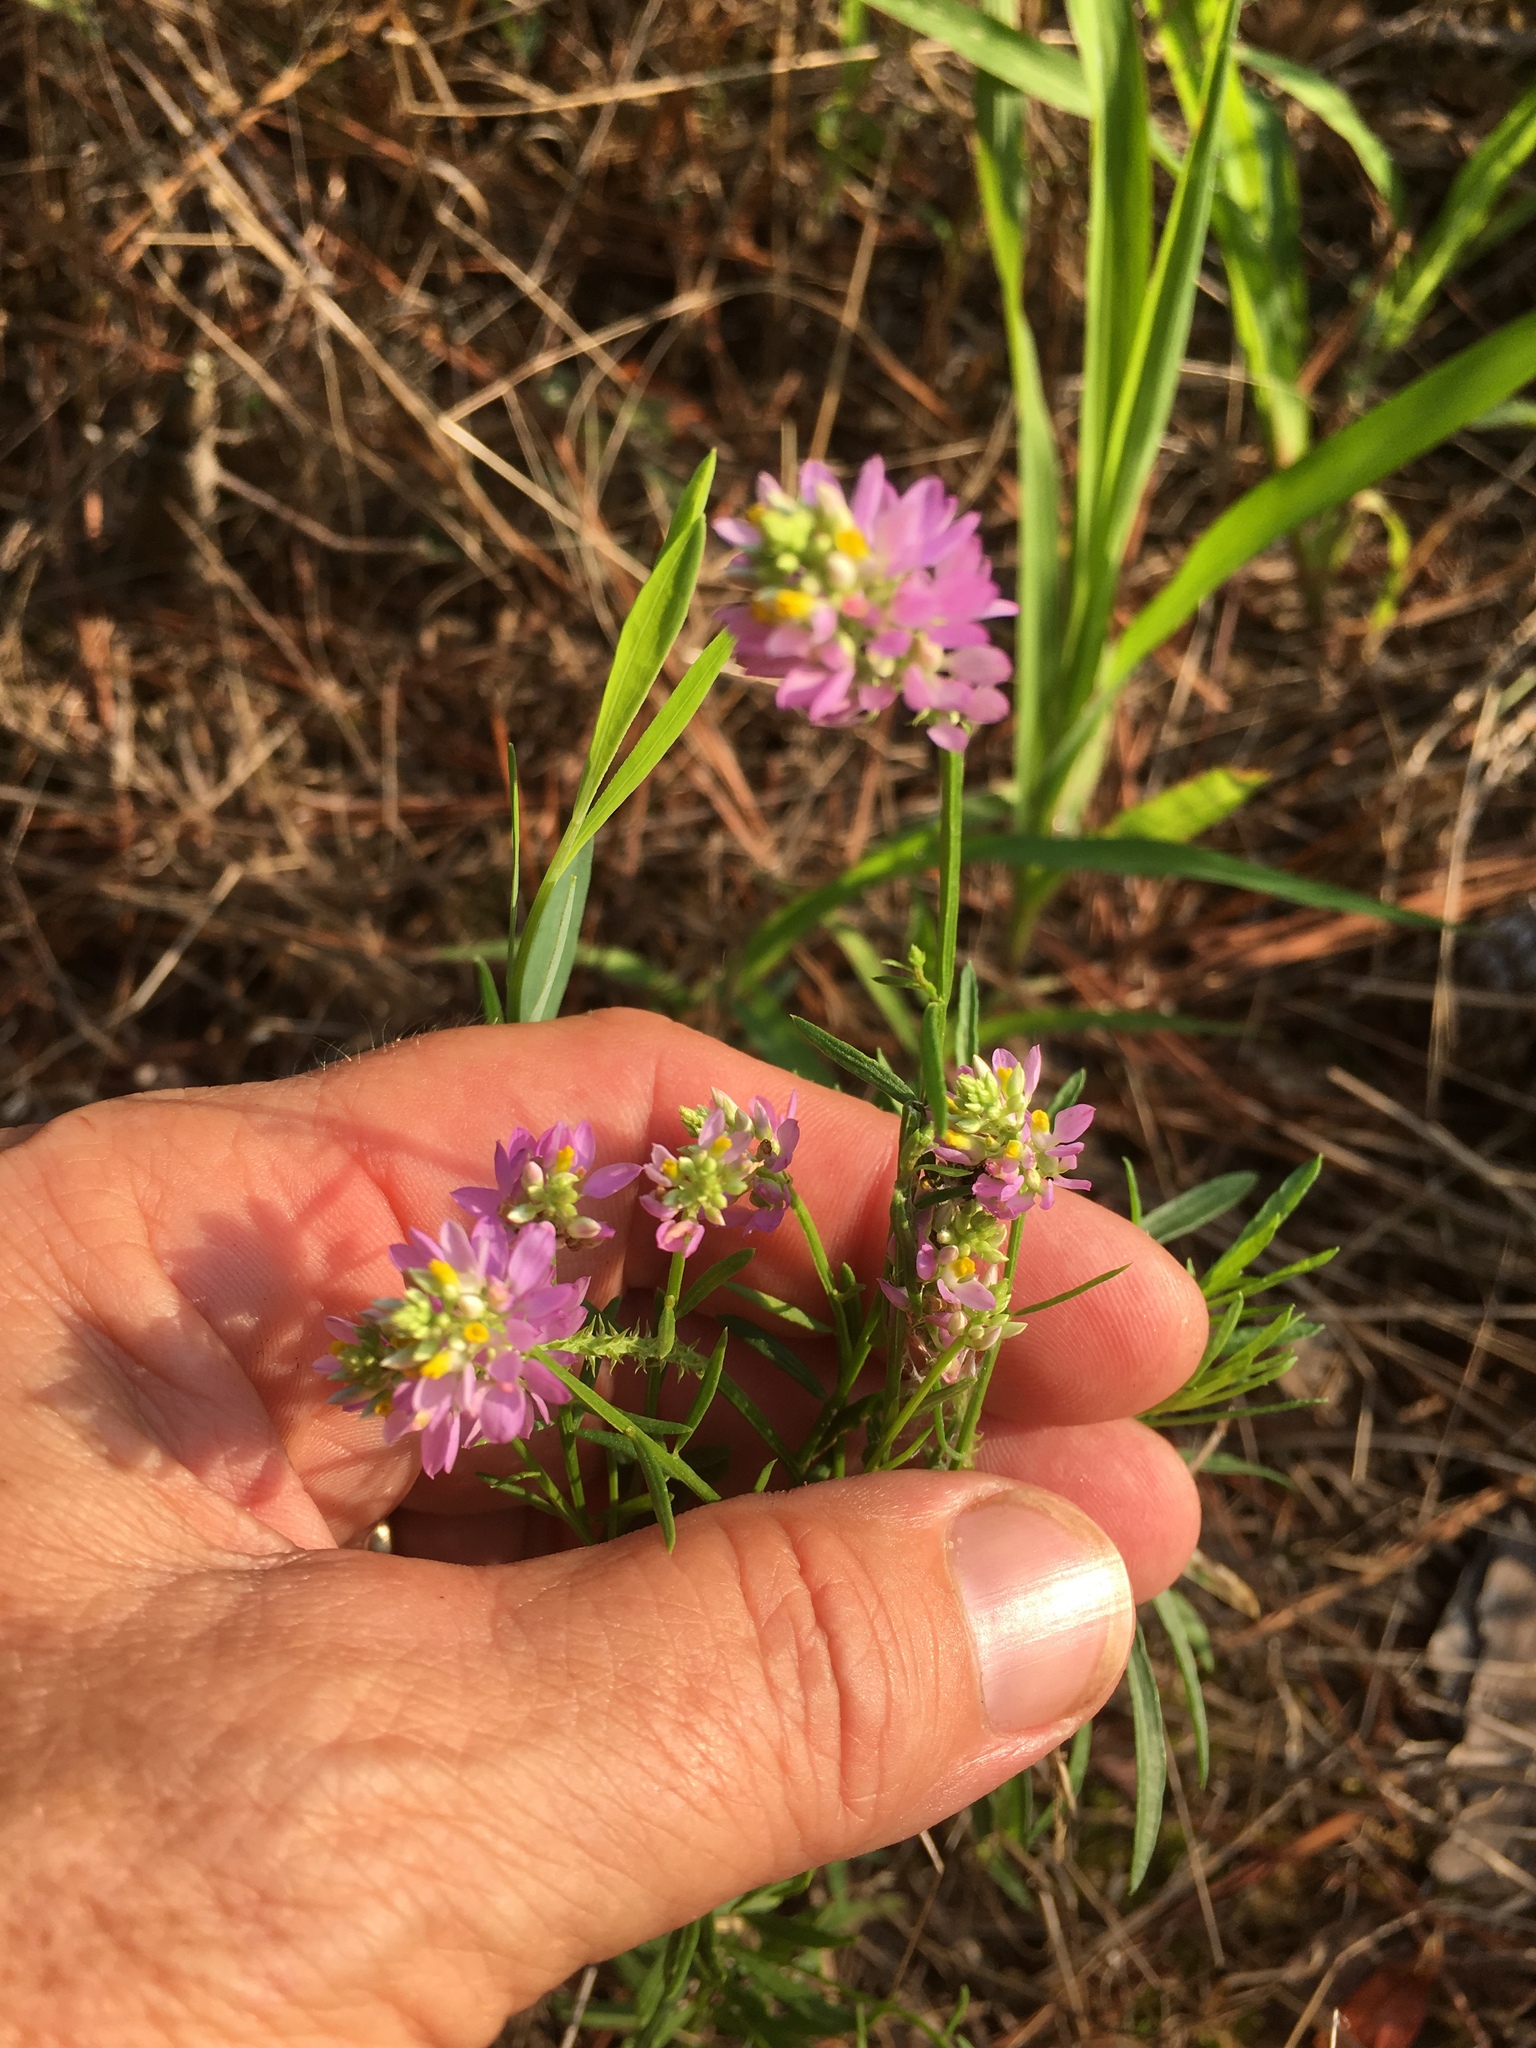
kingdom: Plantae
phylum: Tracheophyta
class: Magnoliopsida
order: Fabales
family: Polygalaceae
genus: Polygala
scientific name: Polygala curtissii
